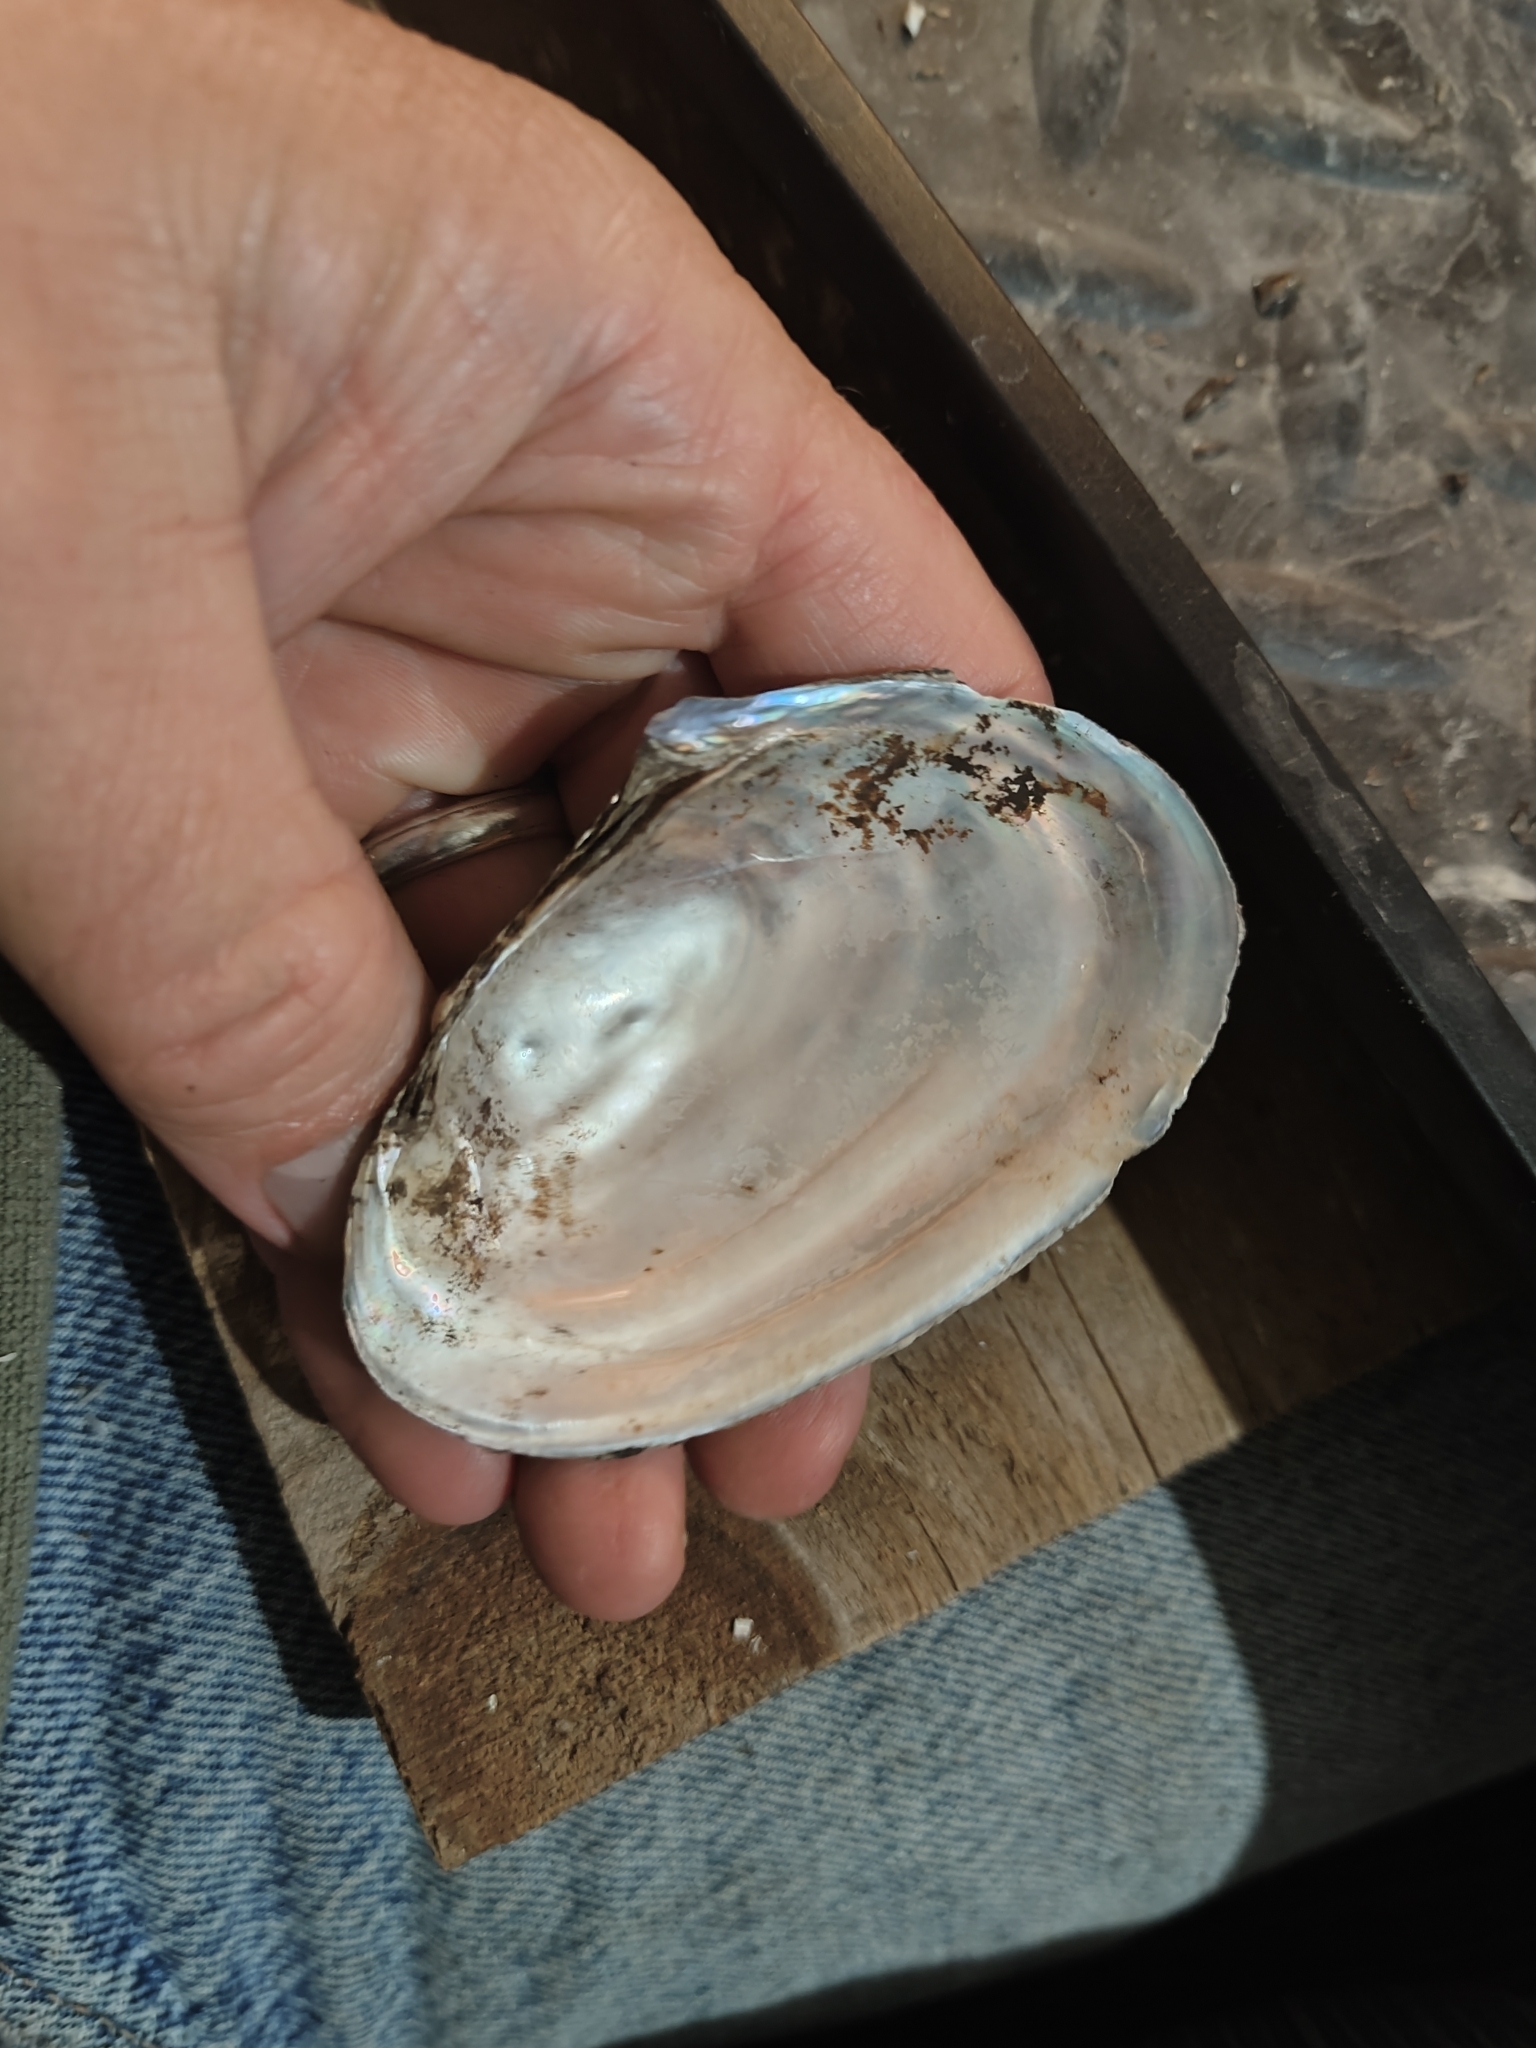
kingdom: Animalia
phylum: Mollusca
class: Bivalvia
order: Unionida
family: Unionidae
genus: Potamilus
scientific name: Potamilus fragilis
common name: Fragile papershell
